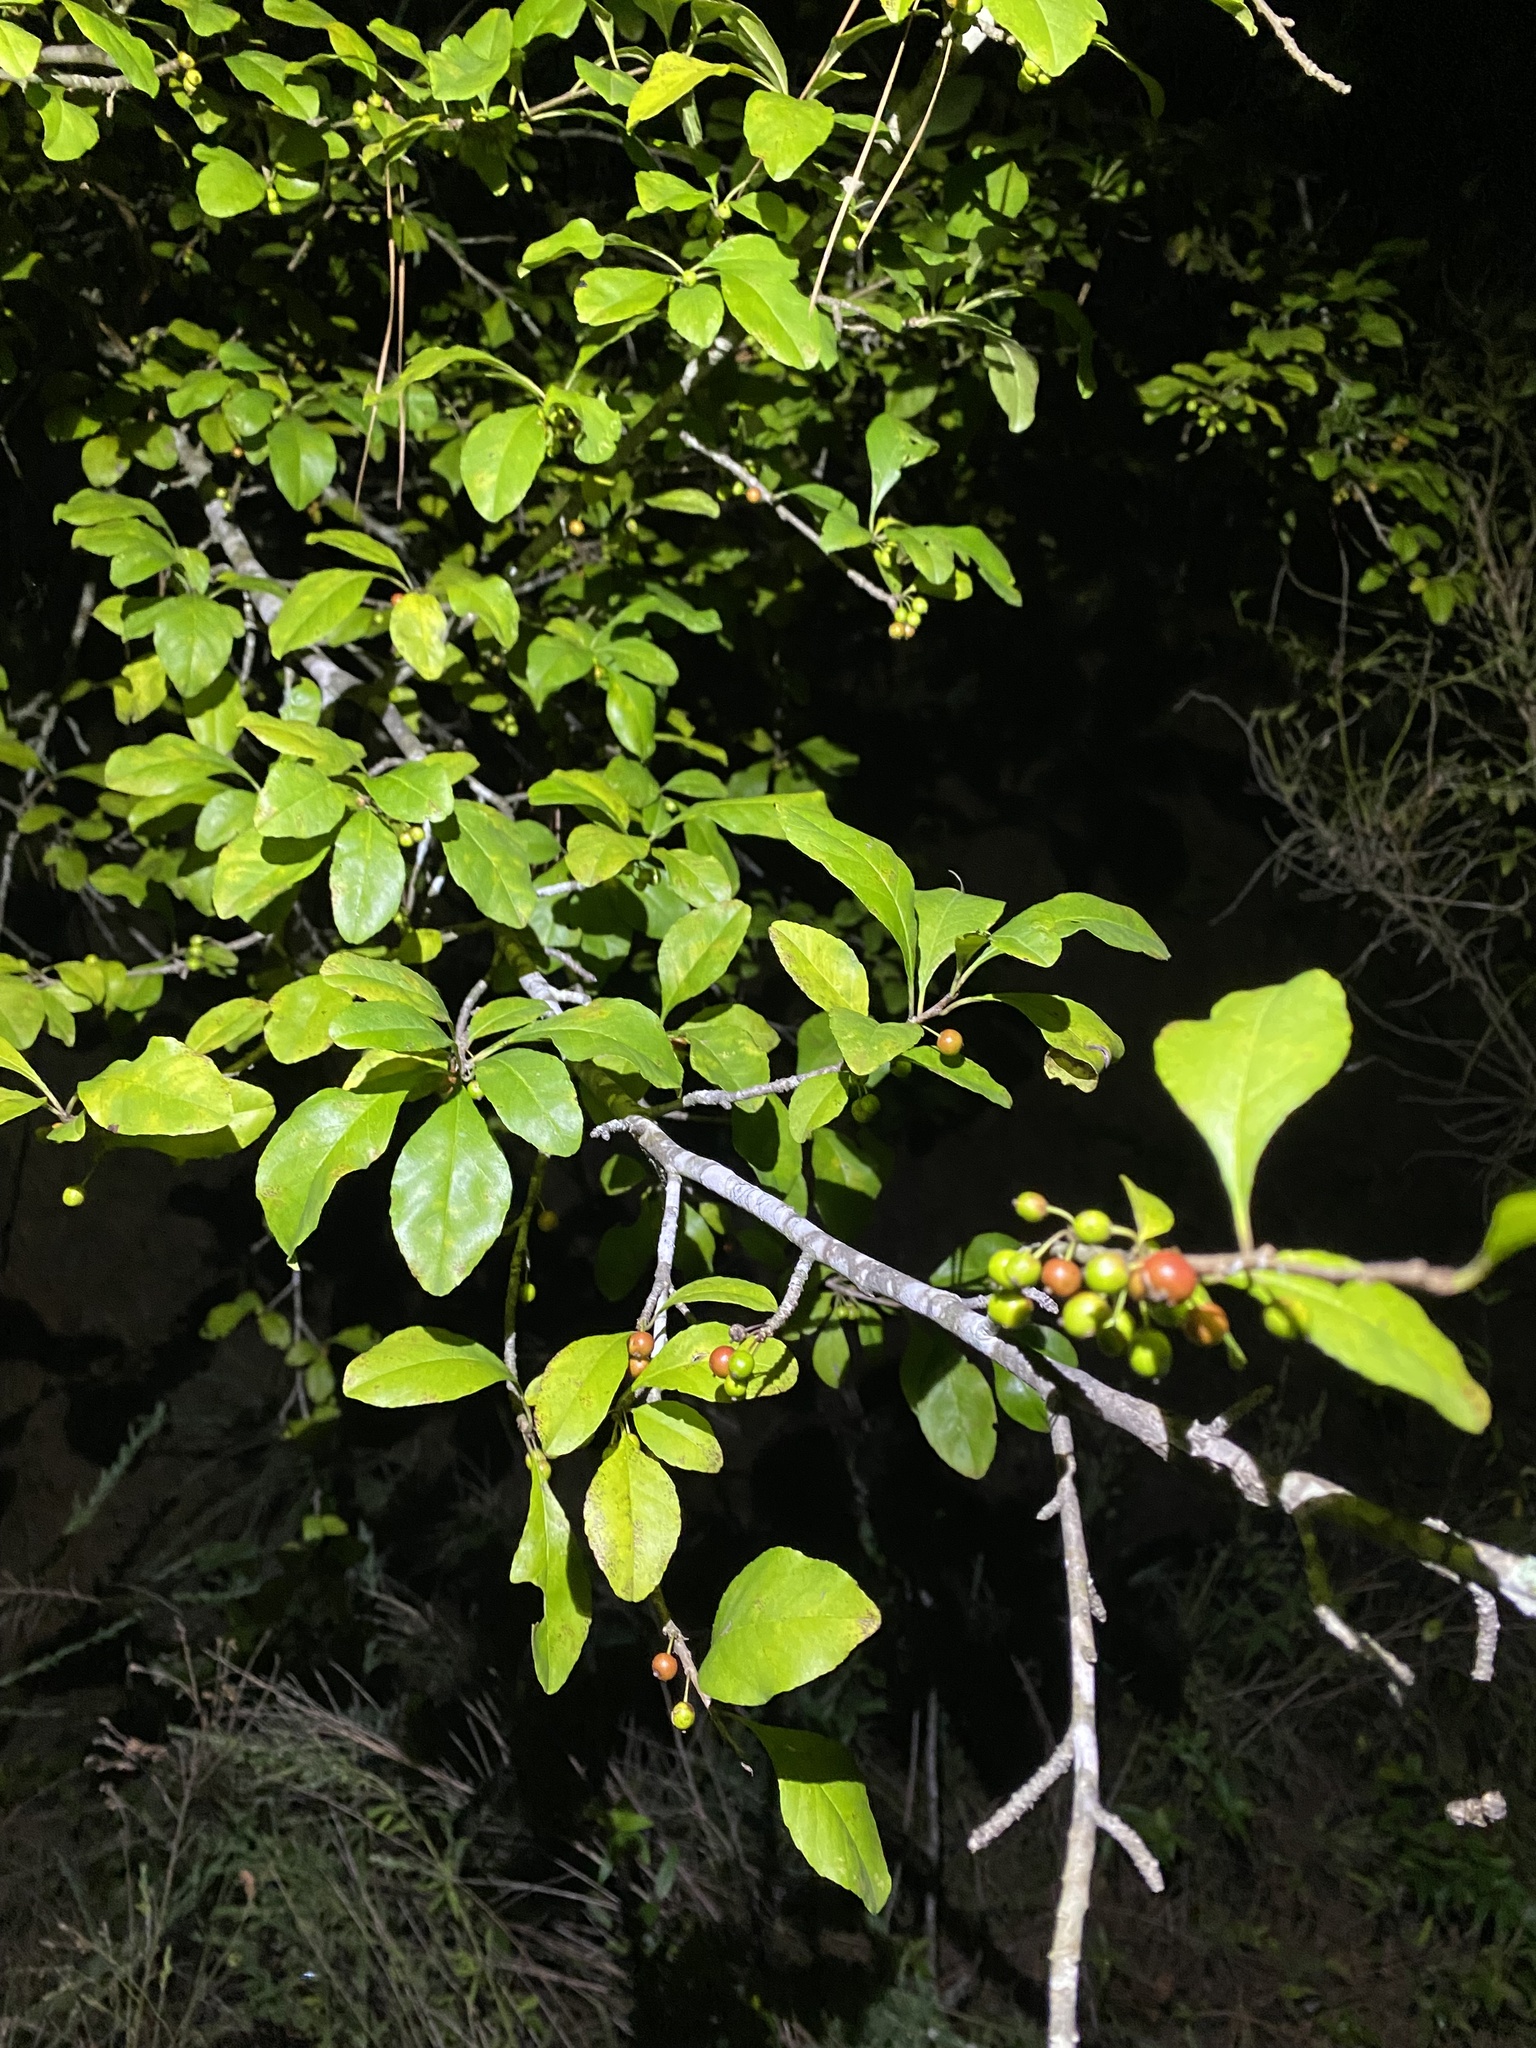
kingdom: Plantae
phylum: Tracheophyta
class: Magnoliopsida
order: Aquifoliales
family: Aquifoliaceae
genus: Ilex
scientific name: Ilex decidua
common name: Possum-haw
